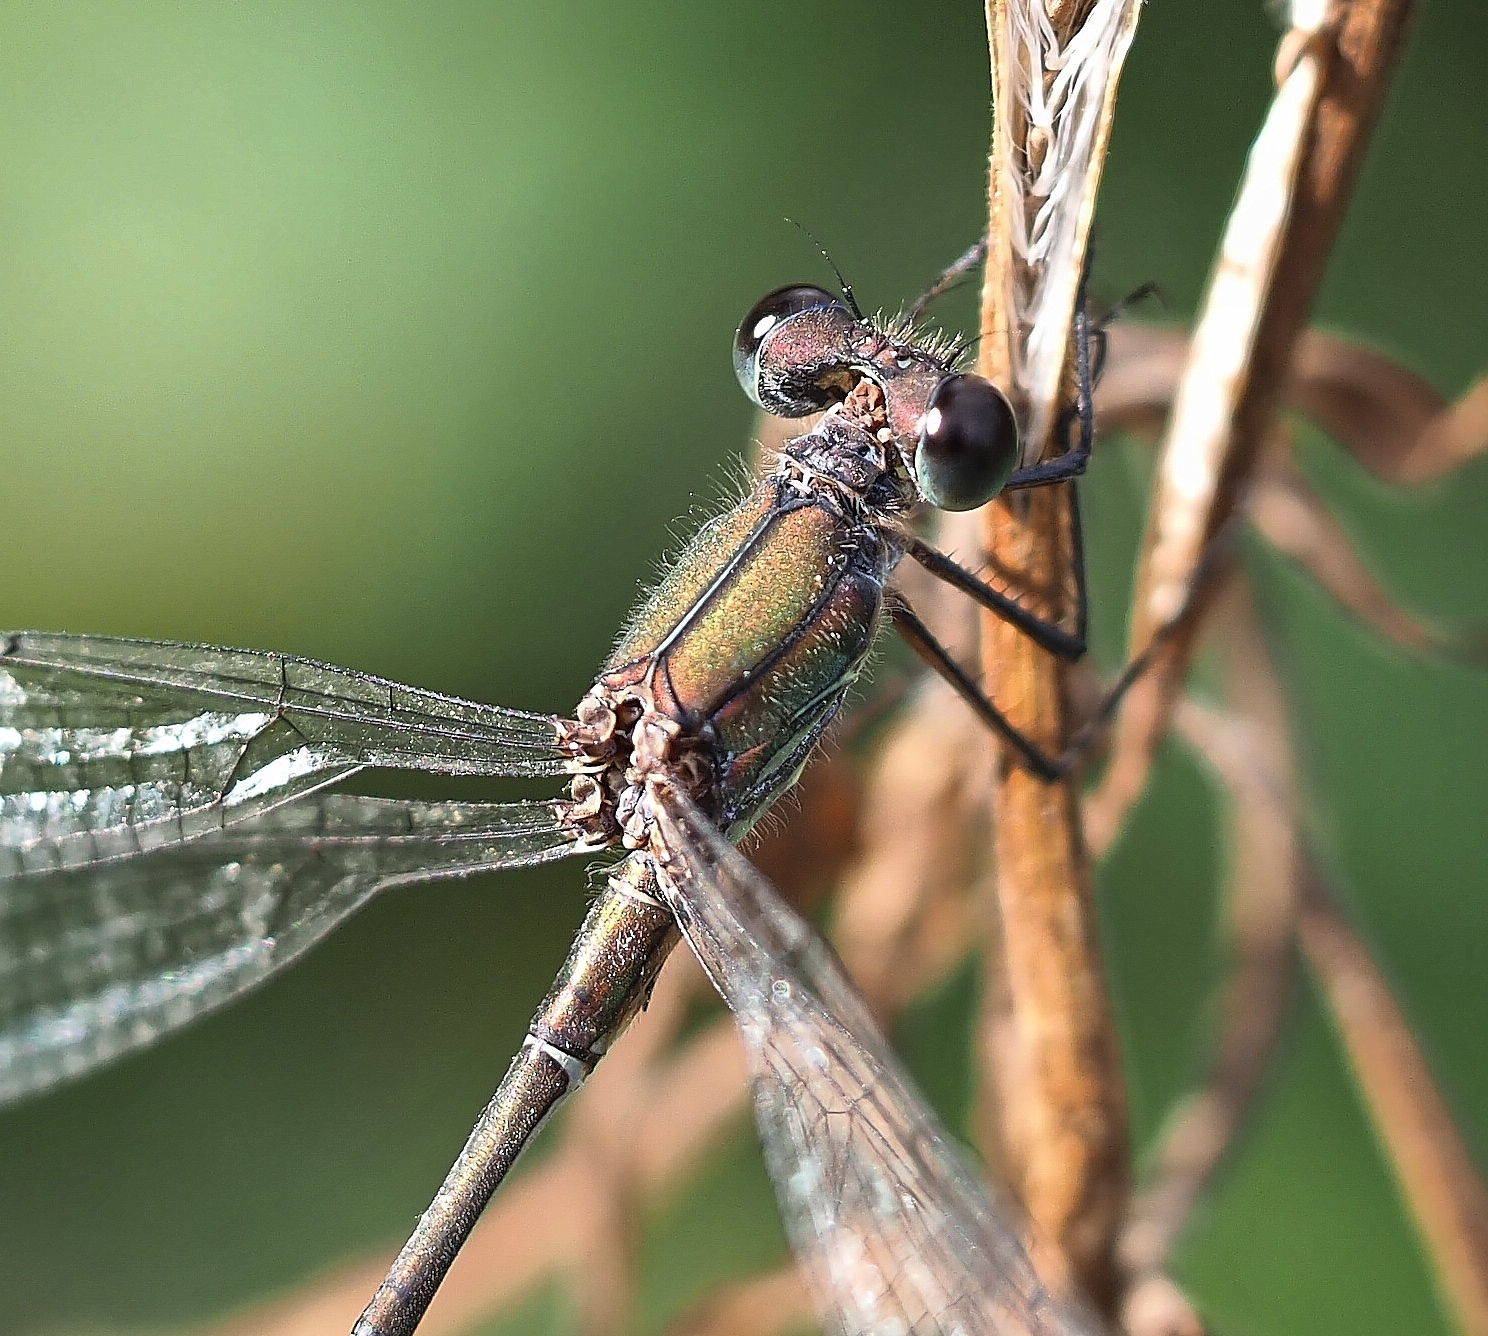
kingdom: Animalia
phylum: Arthropoda
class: Insecta
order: Odonata
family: Lestidae
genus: Chalcolestes
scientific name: Chalcolestes viridis
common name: Green emerald damselfly
